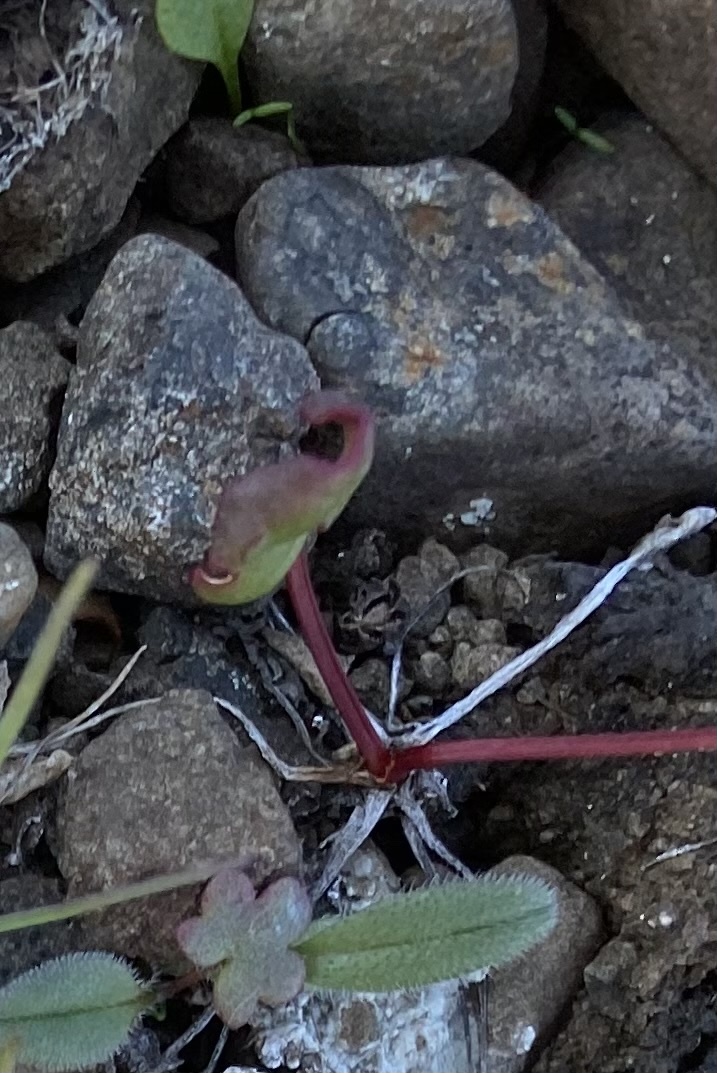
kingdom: Plantae
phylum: Tracheophyta
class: Magnoliopsida
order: Caryophyllales
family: Polygonaceae
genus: Oxyria
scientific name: Oxyria digyna
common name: Alpine mountain-sorrel
